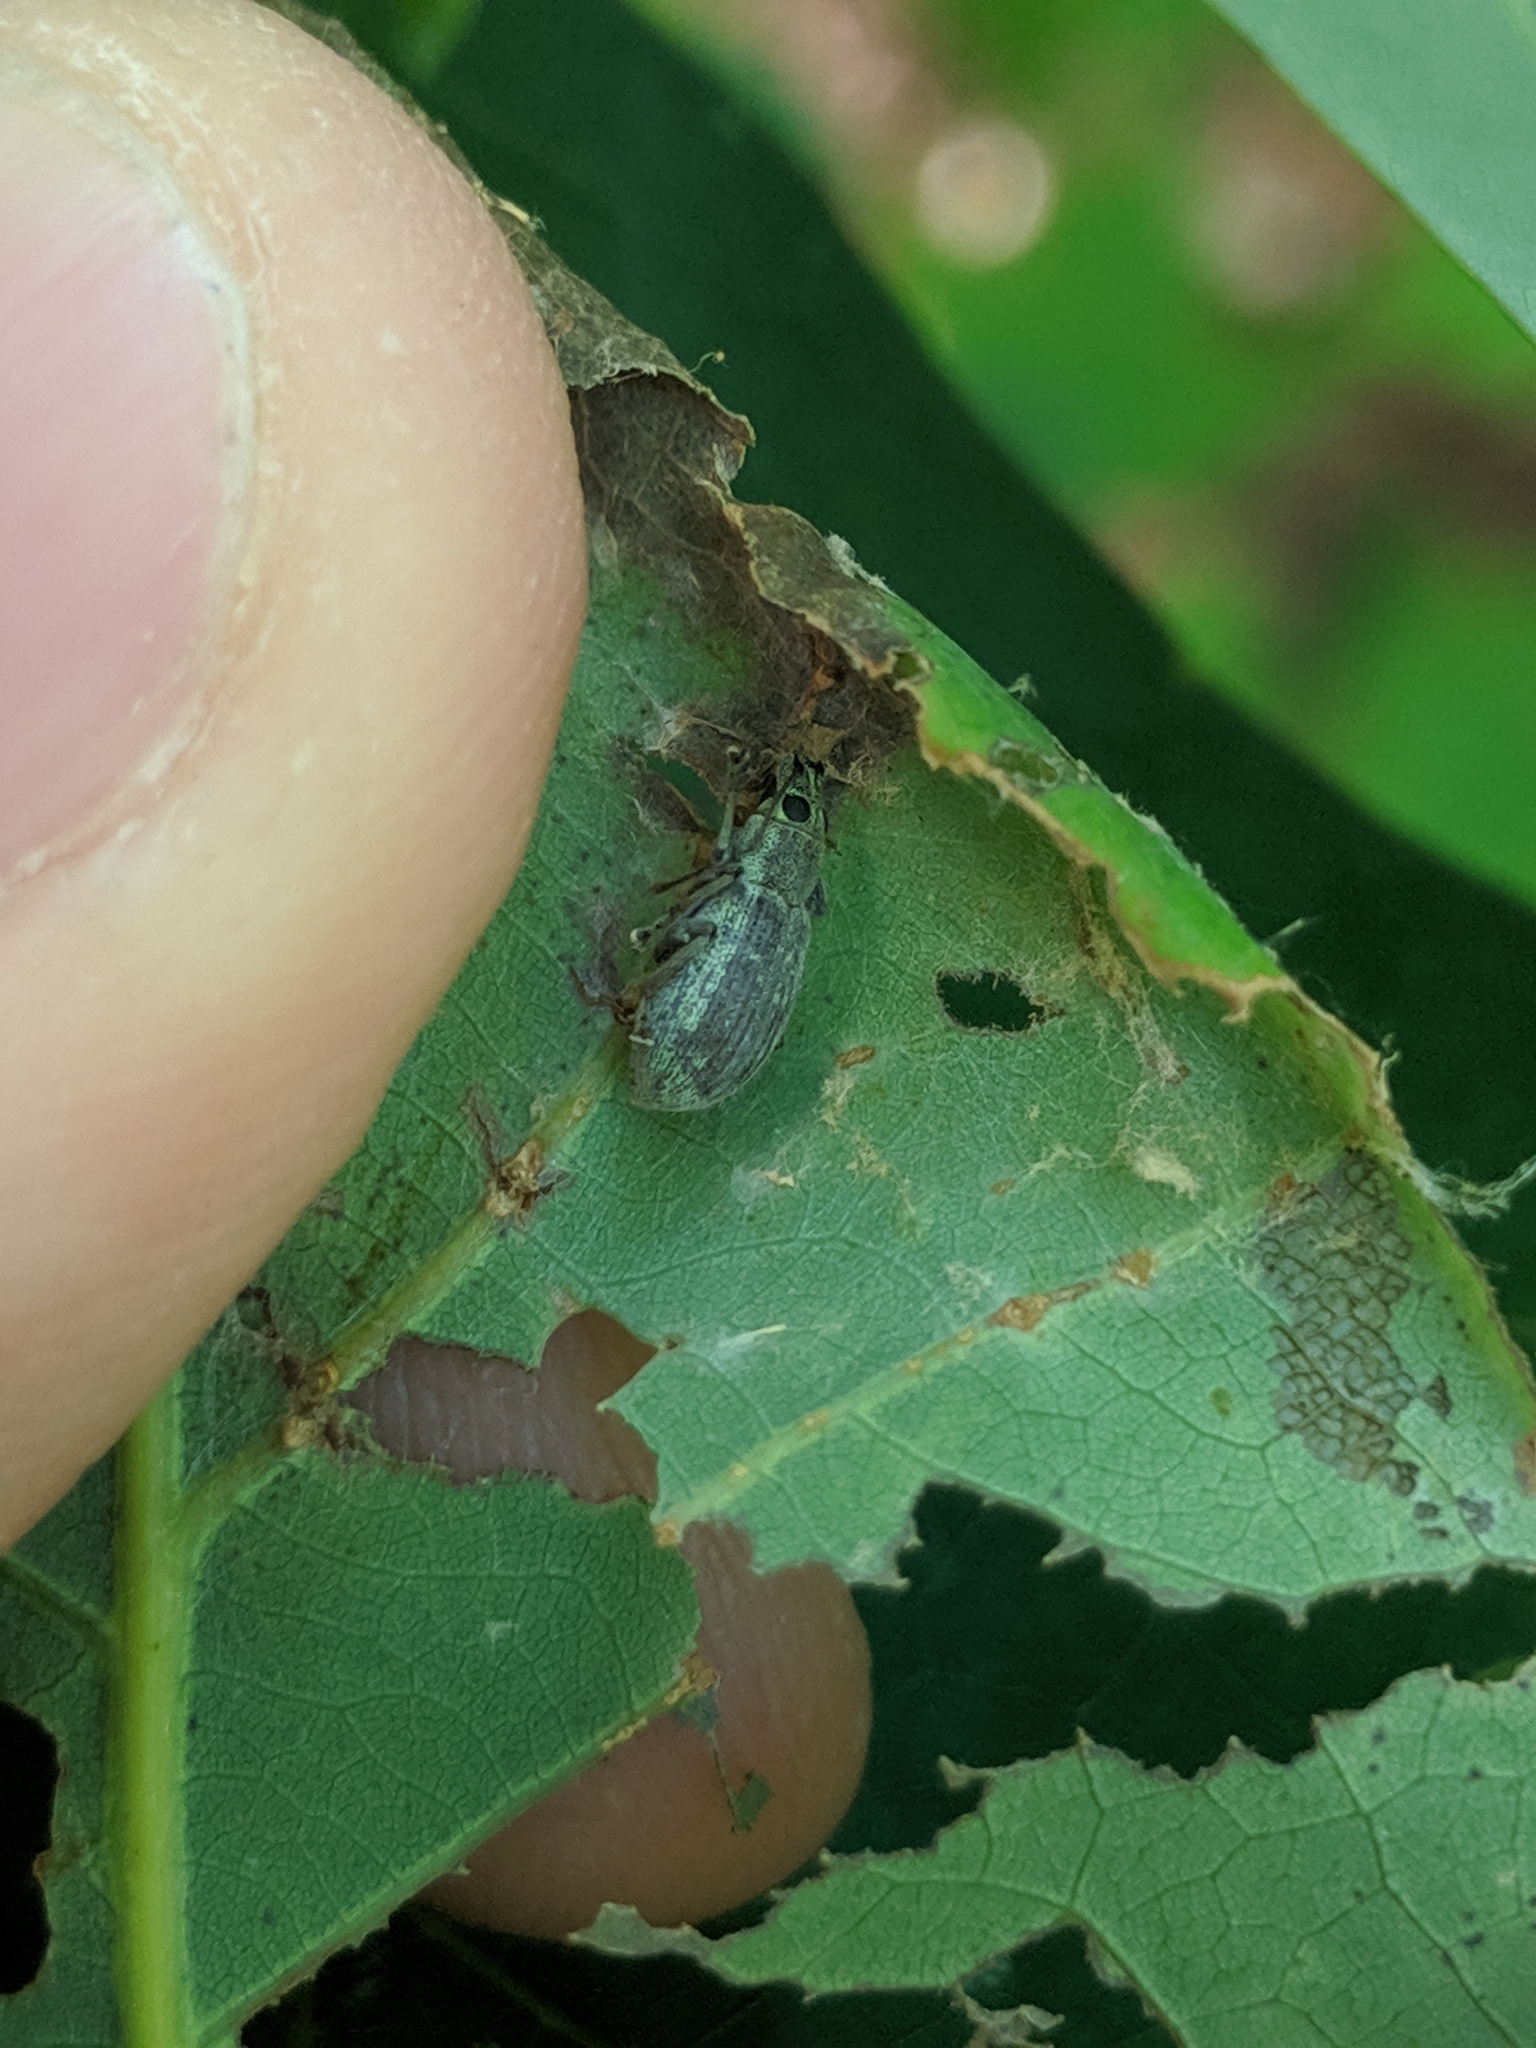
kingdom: Animalia
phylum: Arthropoda
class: Insecta
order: Coleoptera
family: Curculionidae
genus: Cyrtepistomus
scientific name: Cyrtepistomus castaneus
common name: Weevil
